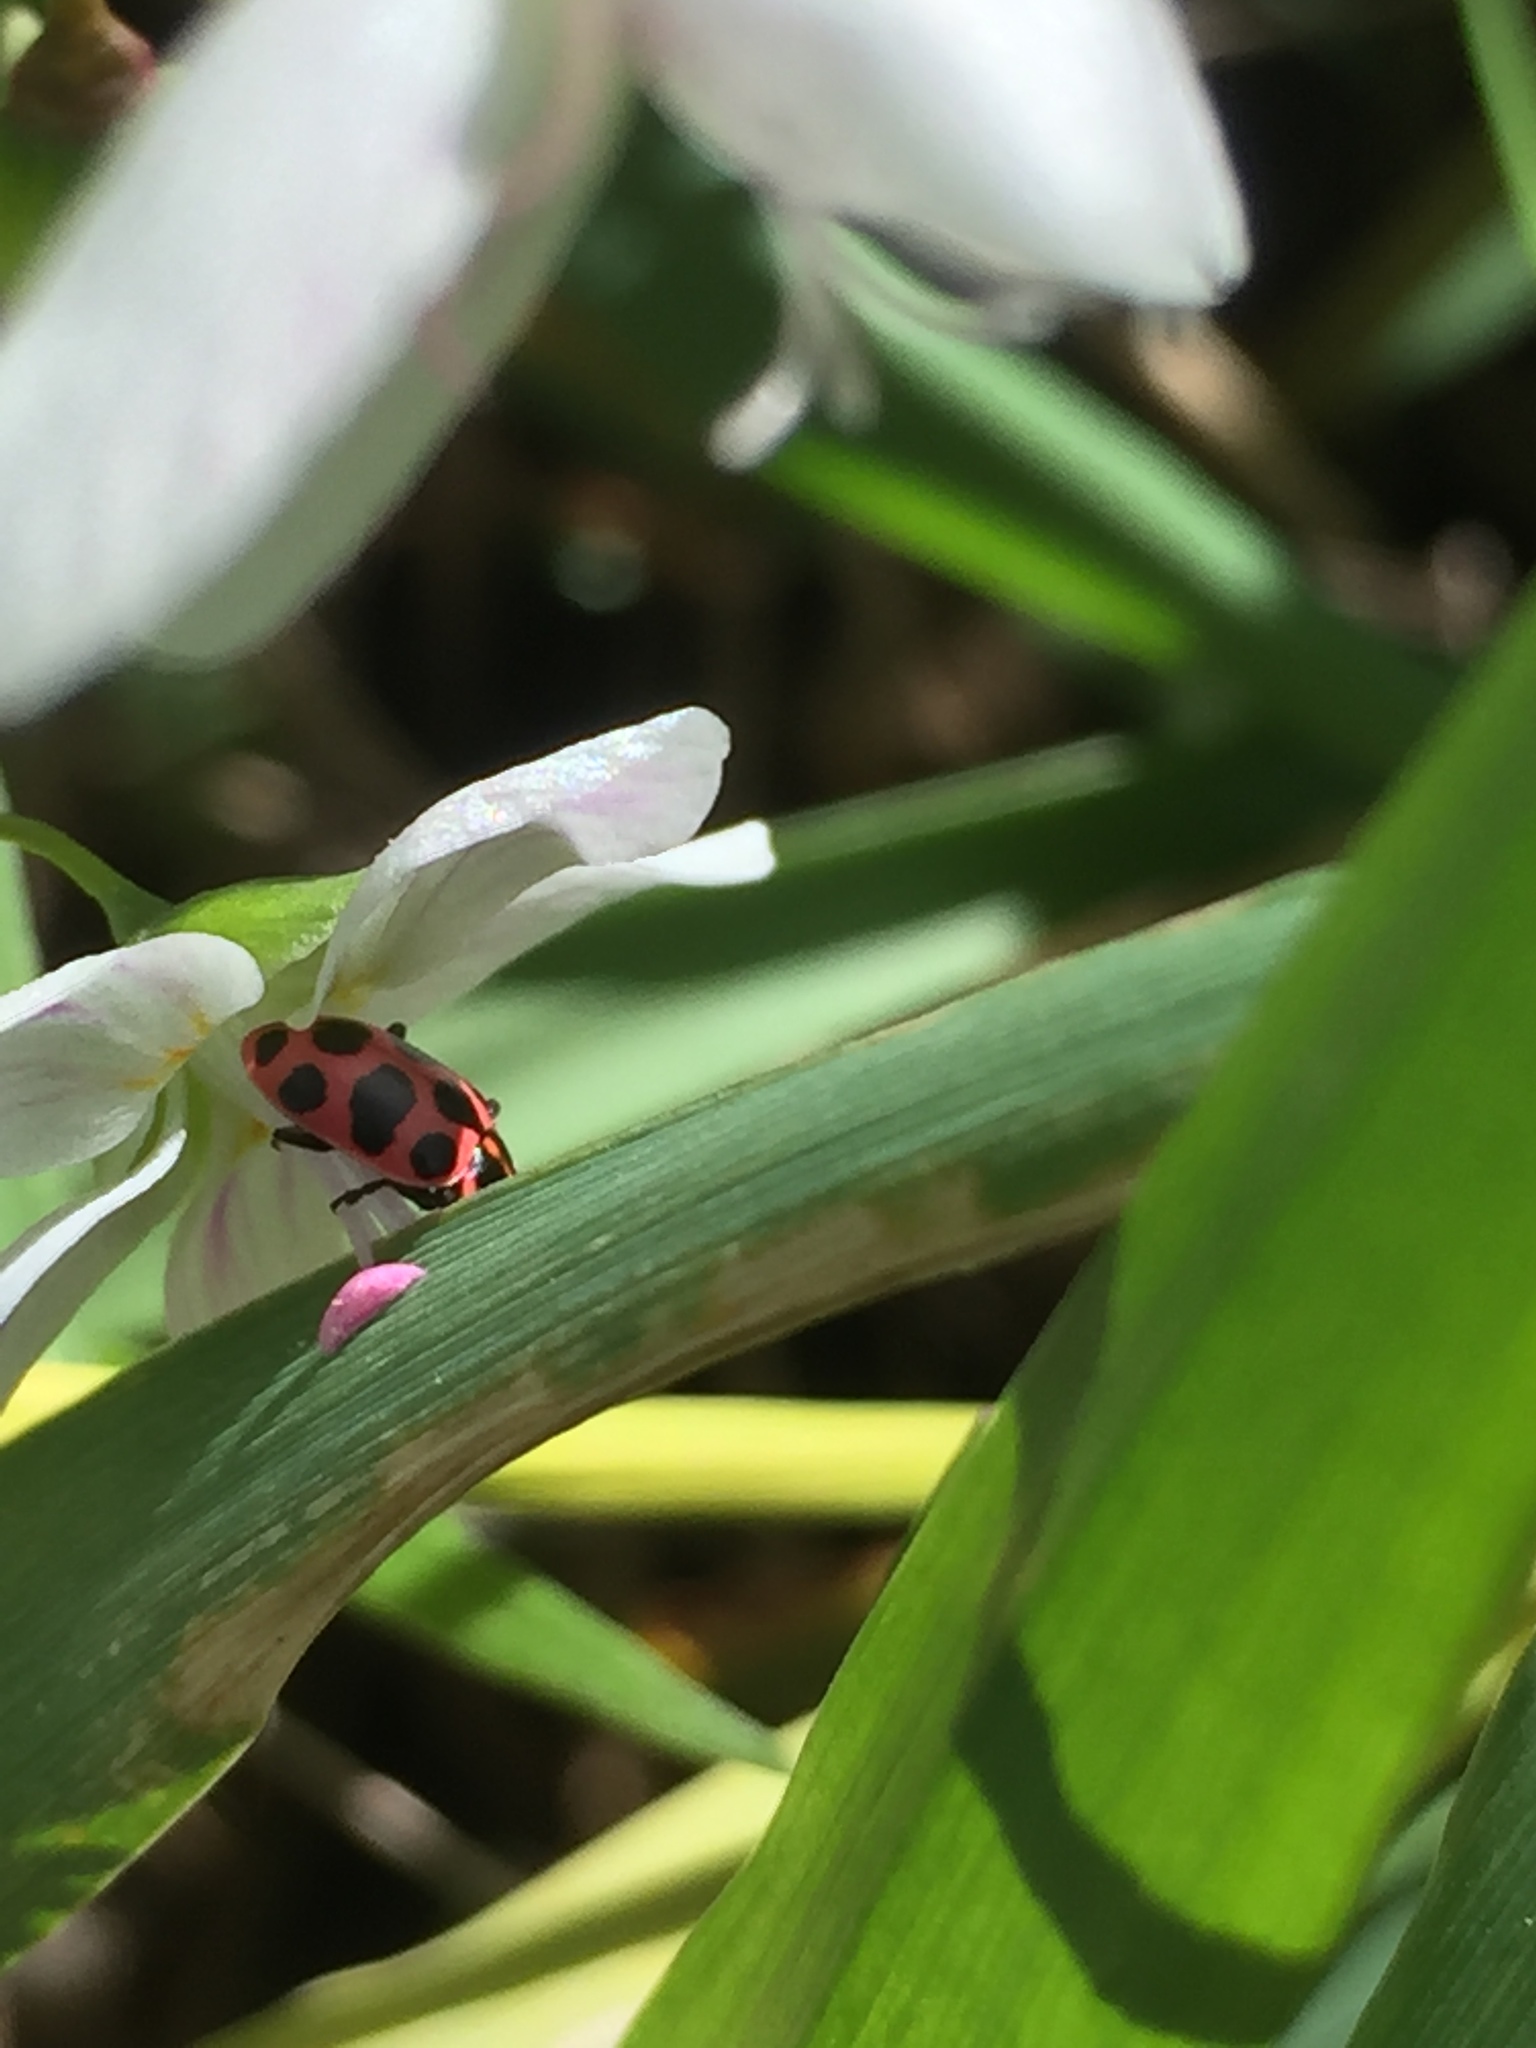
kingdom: Animalia
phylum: Arthropoda
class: Insecta
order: Coleoptera
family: Coccinellidae
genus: Coleomegilla
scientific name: Coleomegilla maculata
